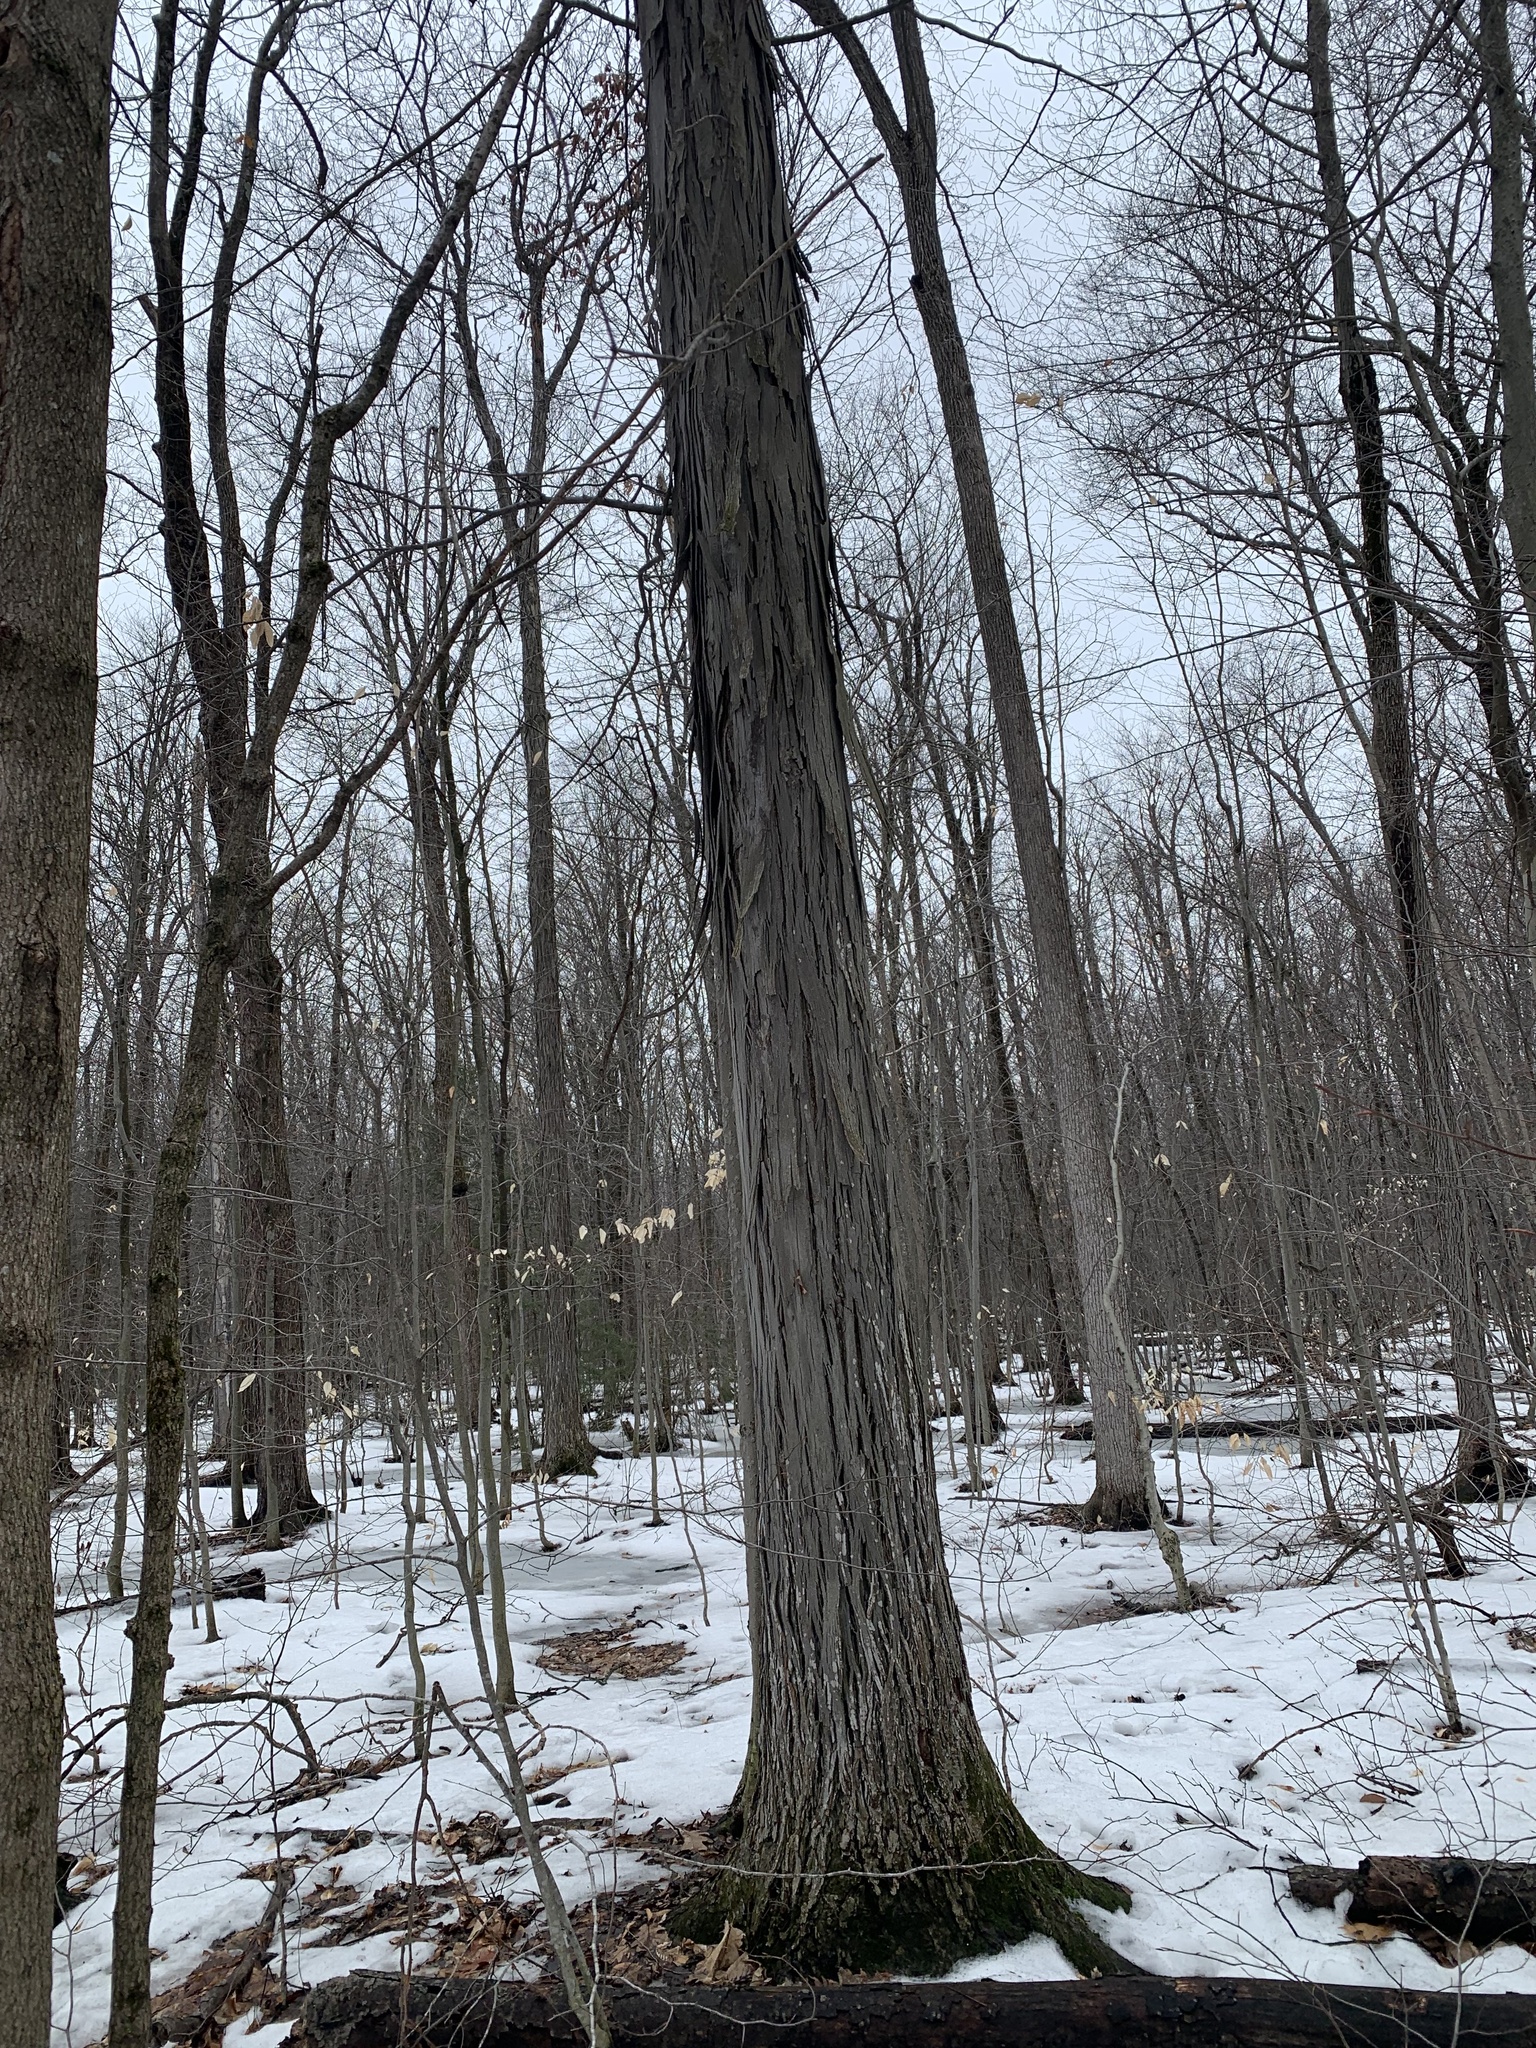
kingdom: Plantae
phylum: Tracheophyta
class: Magnoliopsida
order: Fagales
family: Juglandaceae
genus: Carya
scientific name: Carya ovata
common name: Shagbark hickory
